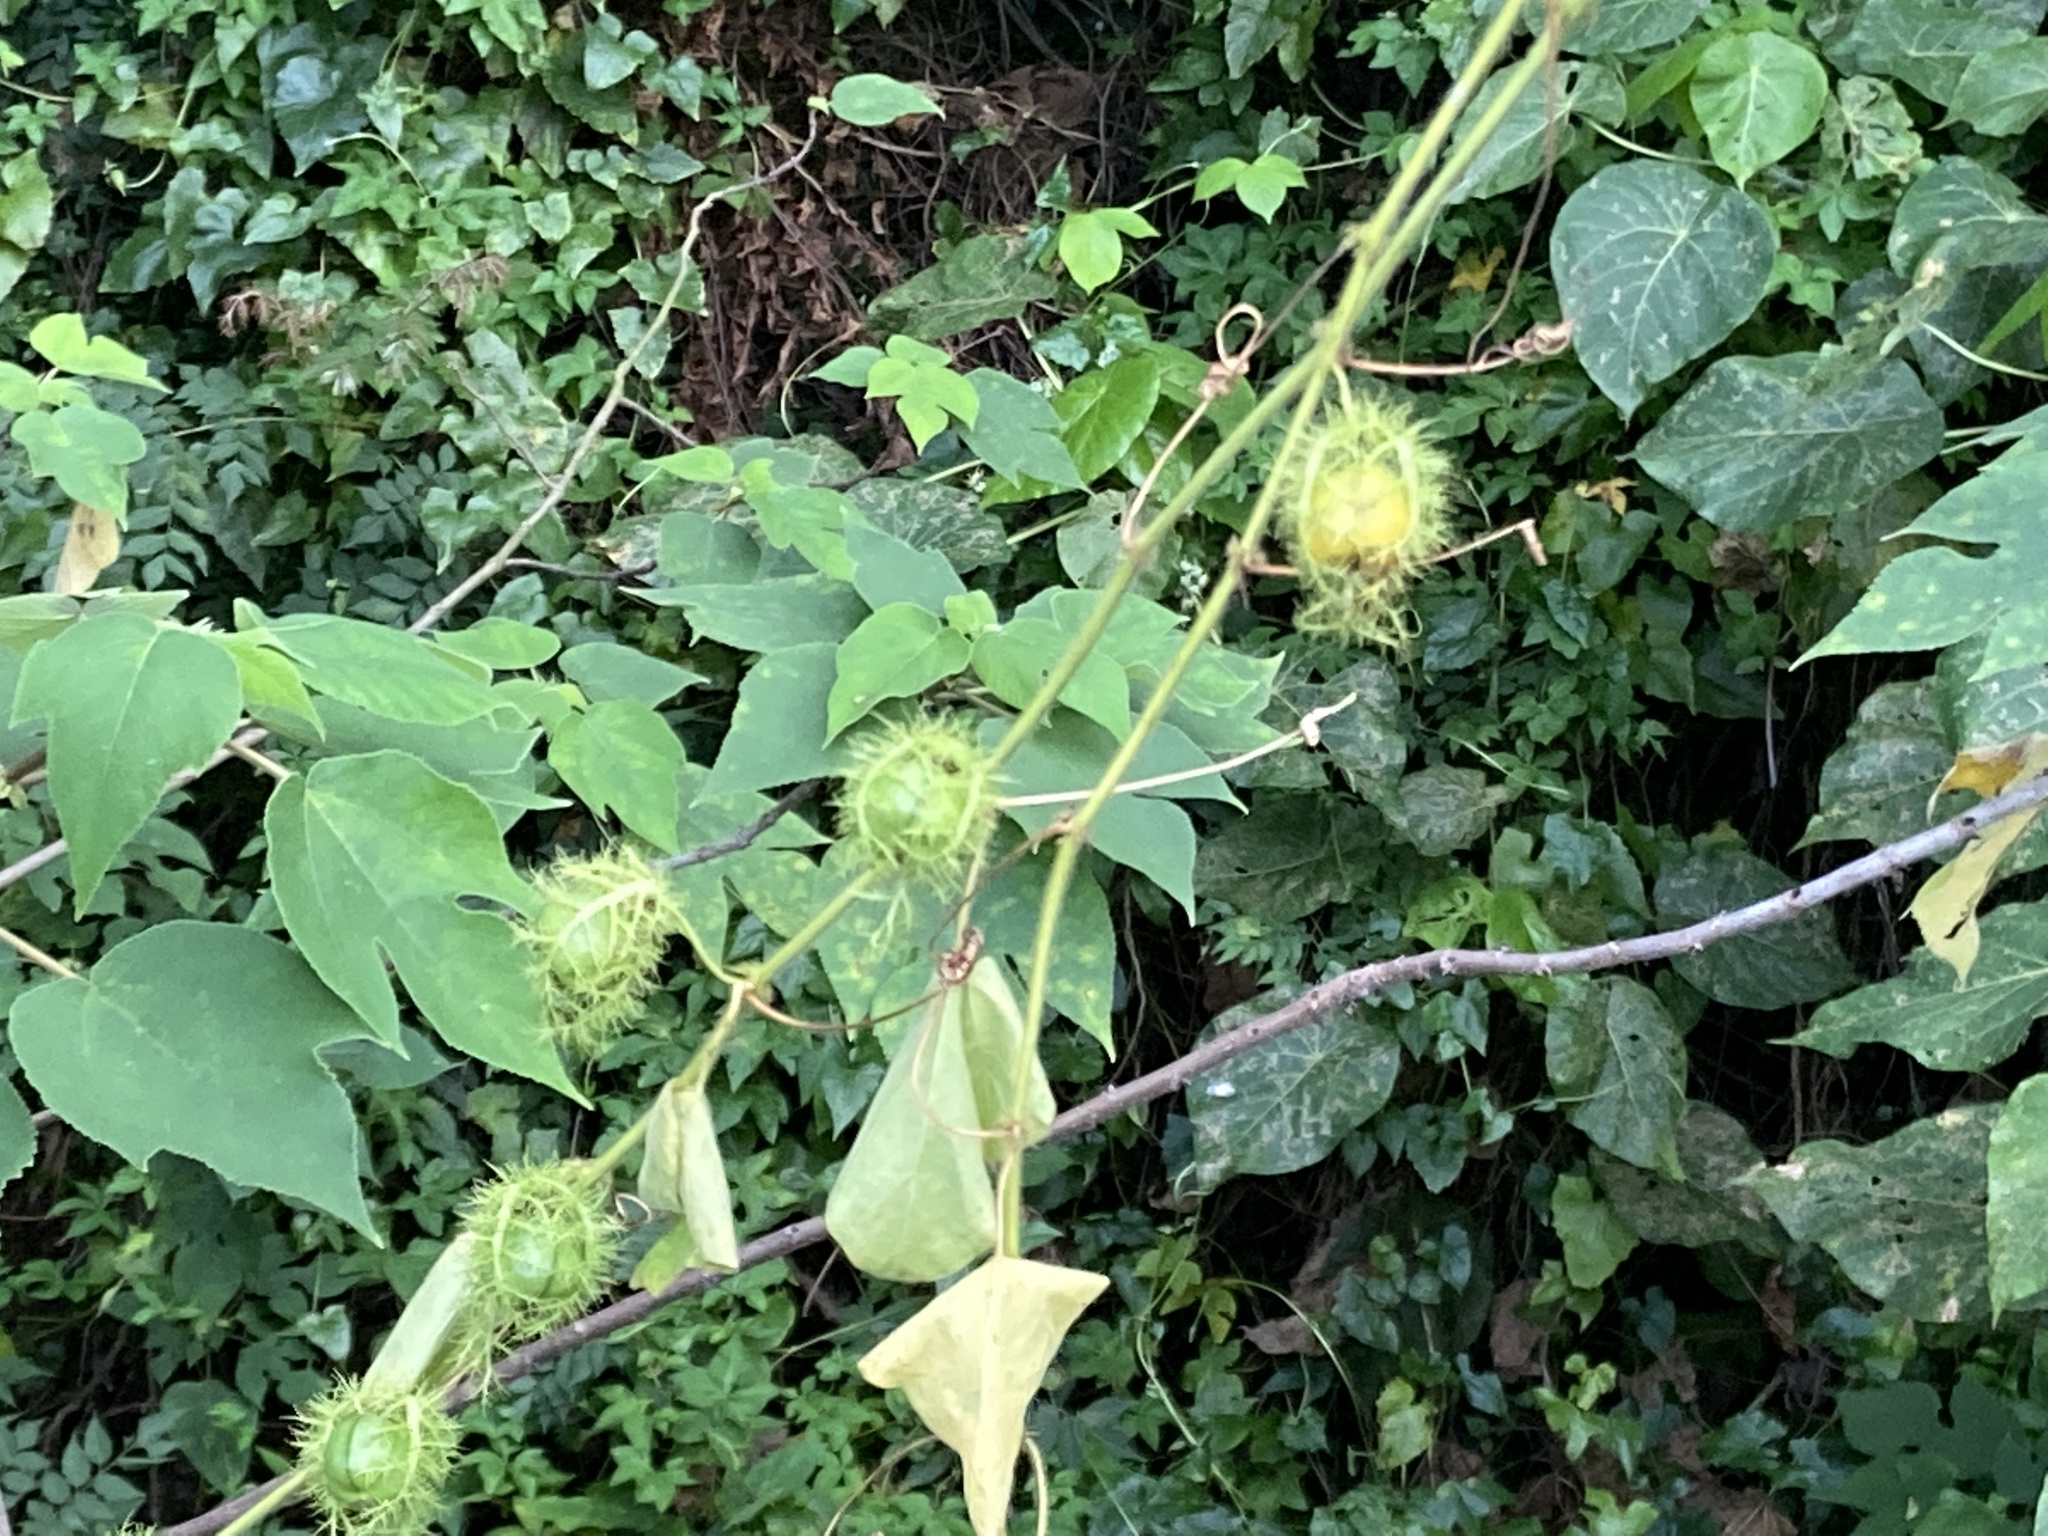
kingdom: Plantae
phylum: Tracheophyta
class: Magnoliopsida
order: Malpighiales
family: Passifloraceae
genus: Passiflora
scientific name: Passiflora vesicaria
